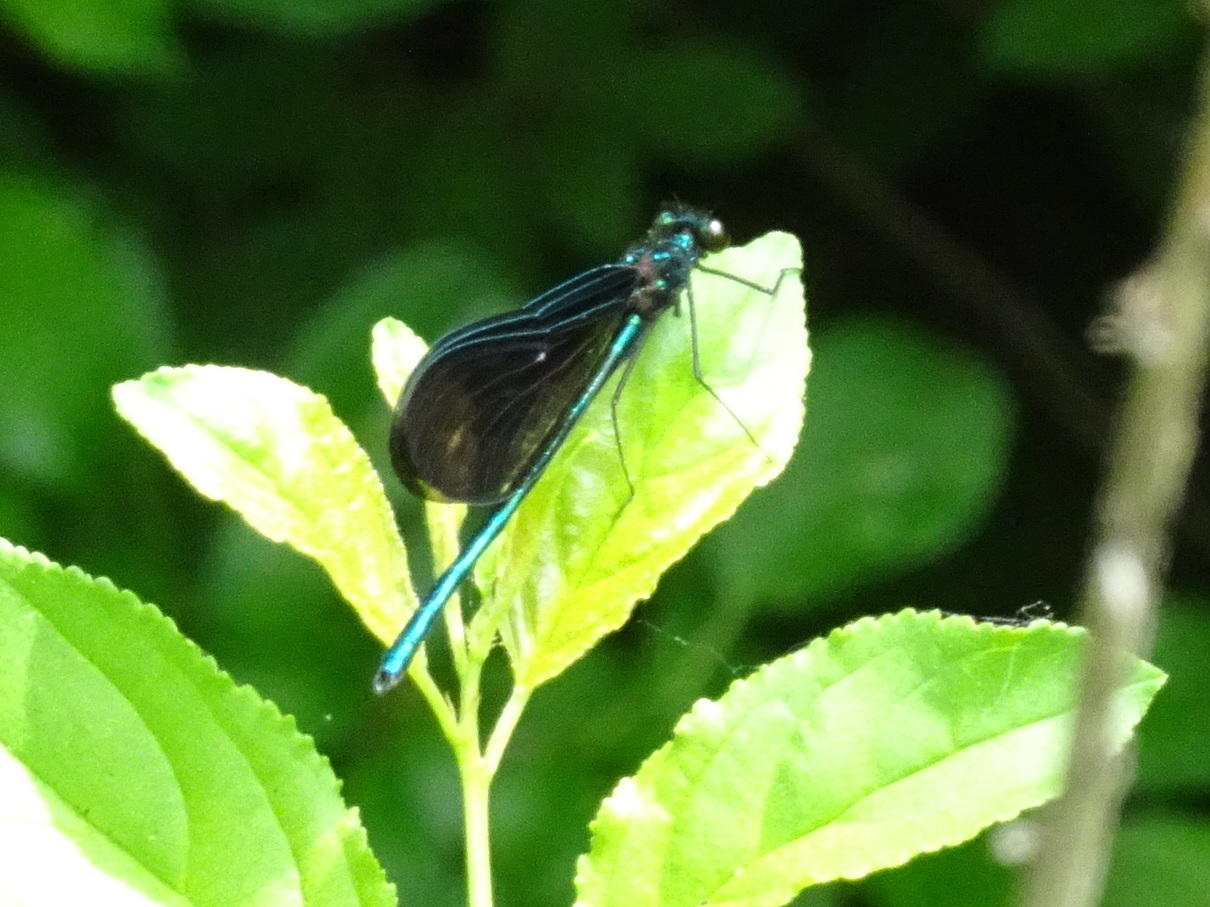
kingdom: Animalia
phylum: Arthropoda
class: Insecta
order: Odonata
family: Calopterygidae
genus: Calopteryx
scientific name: Calopteryx maculata
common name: Ebony jewelwing
